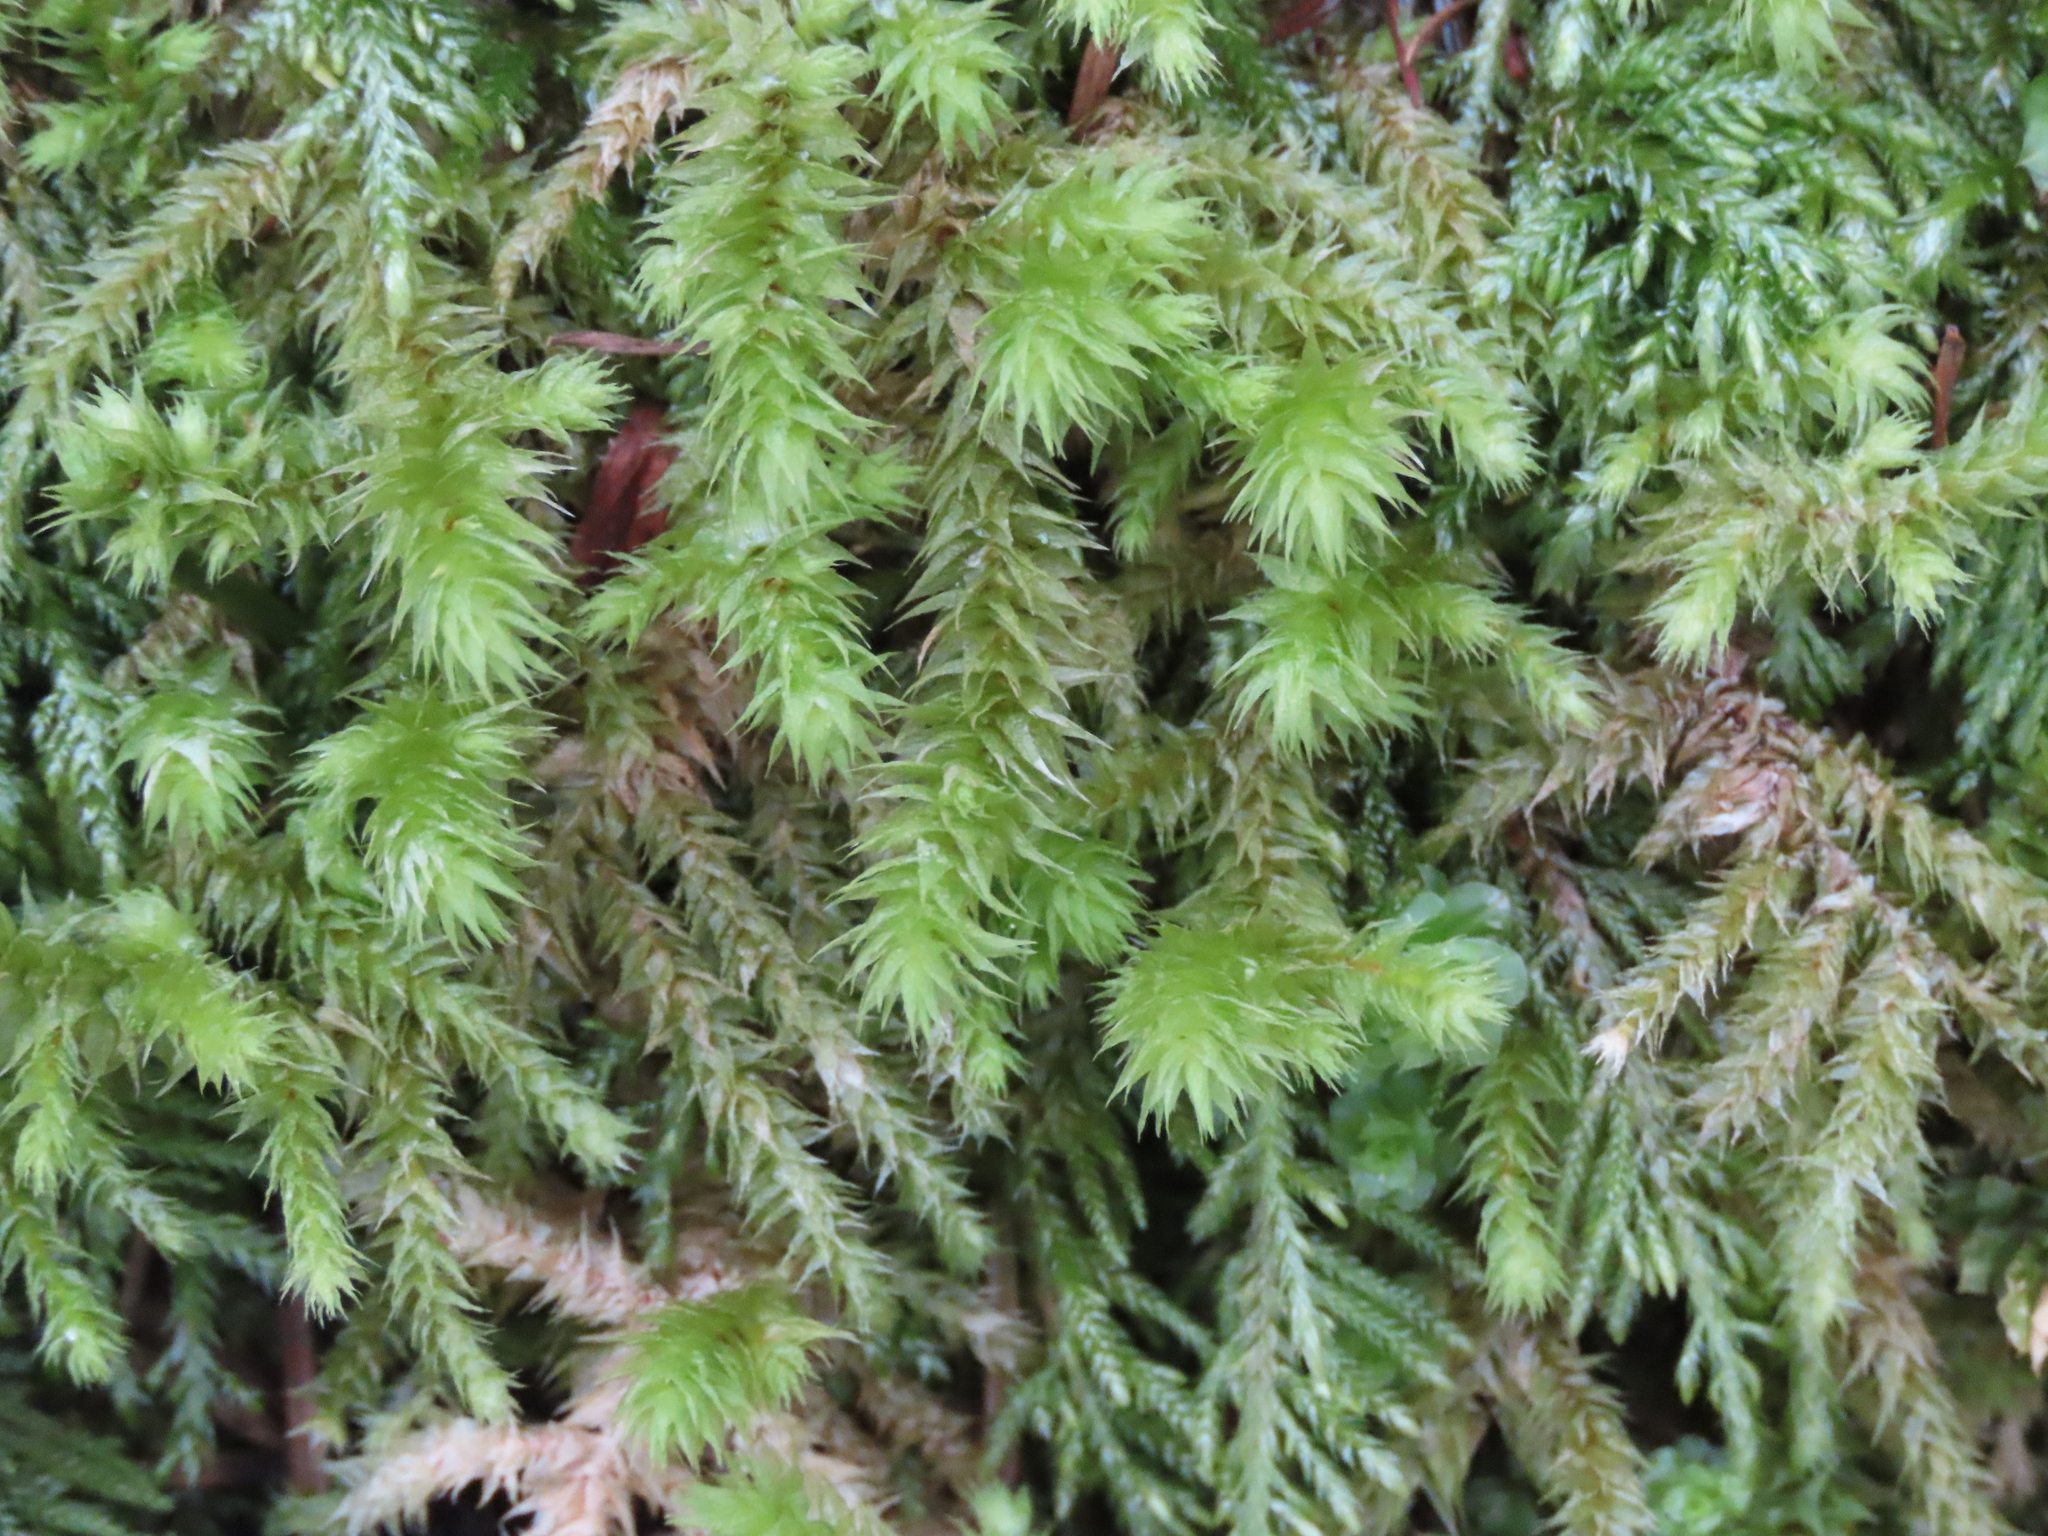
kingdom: Plantae
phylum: Bryophyta
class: Bryopsida
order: Hypnales
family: Hylocomiaceae
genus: Hylocomiadelphus
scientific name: Hylocomiadelphus triquetrus
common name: Rough goose neck moss
